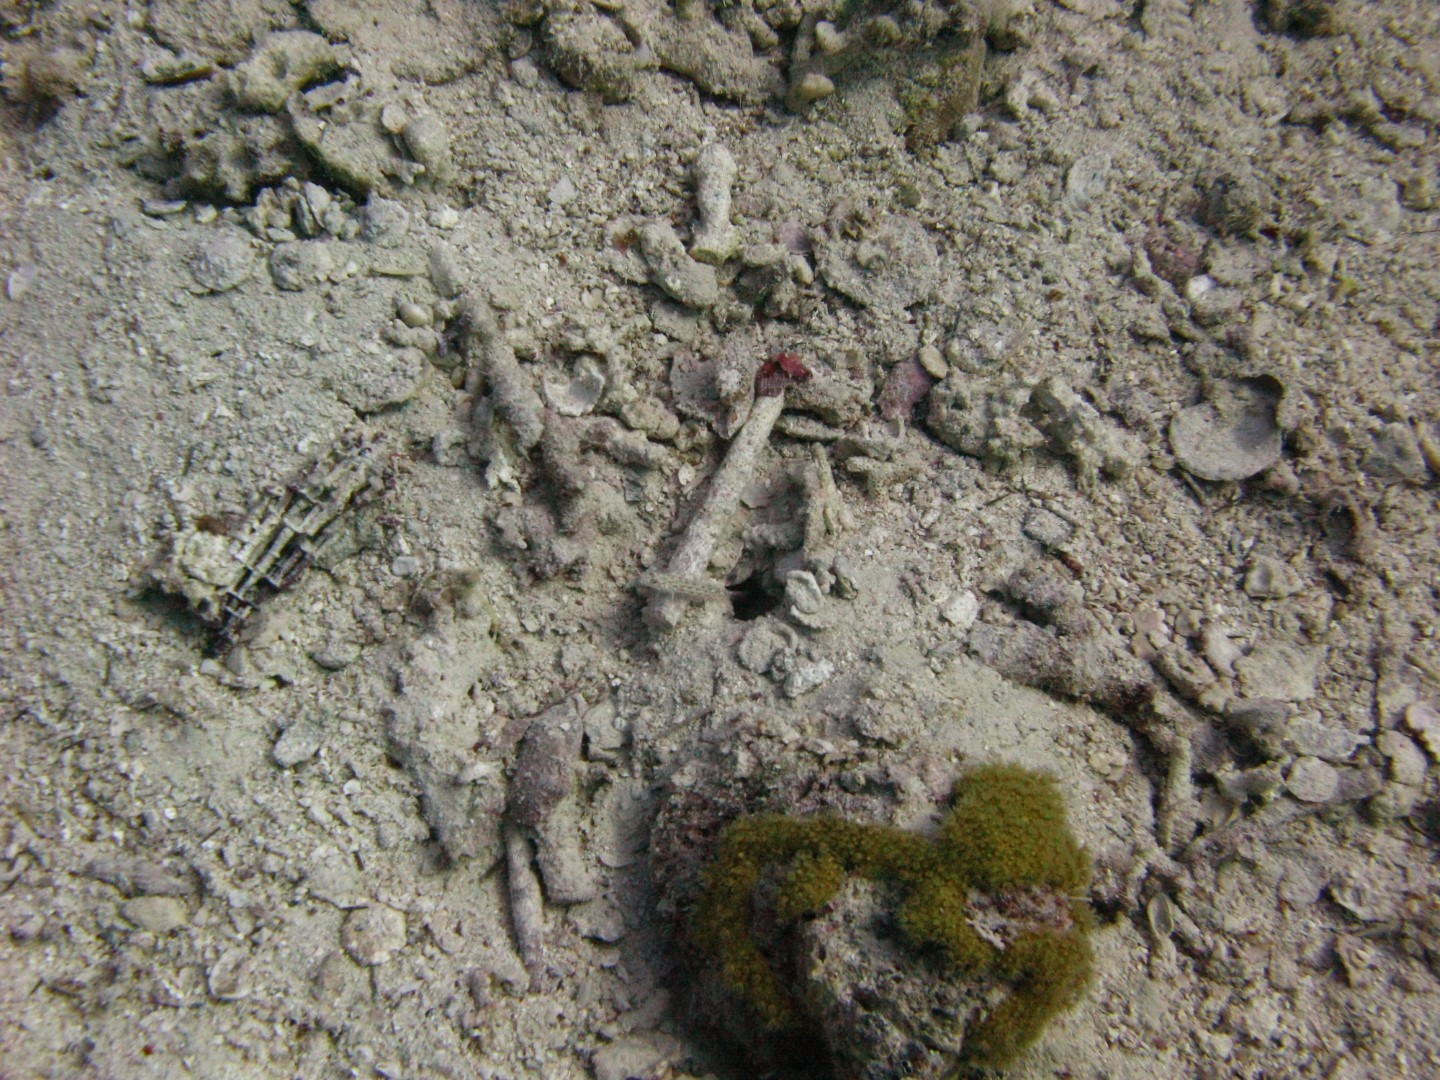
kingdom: Animalia
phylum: Chordata
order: Perciformes
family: Gobiidae
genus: Ctenogobiops
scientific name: Ctenogobiops crocineus
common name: Silverspot shrimpgoby
